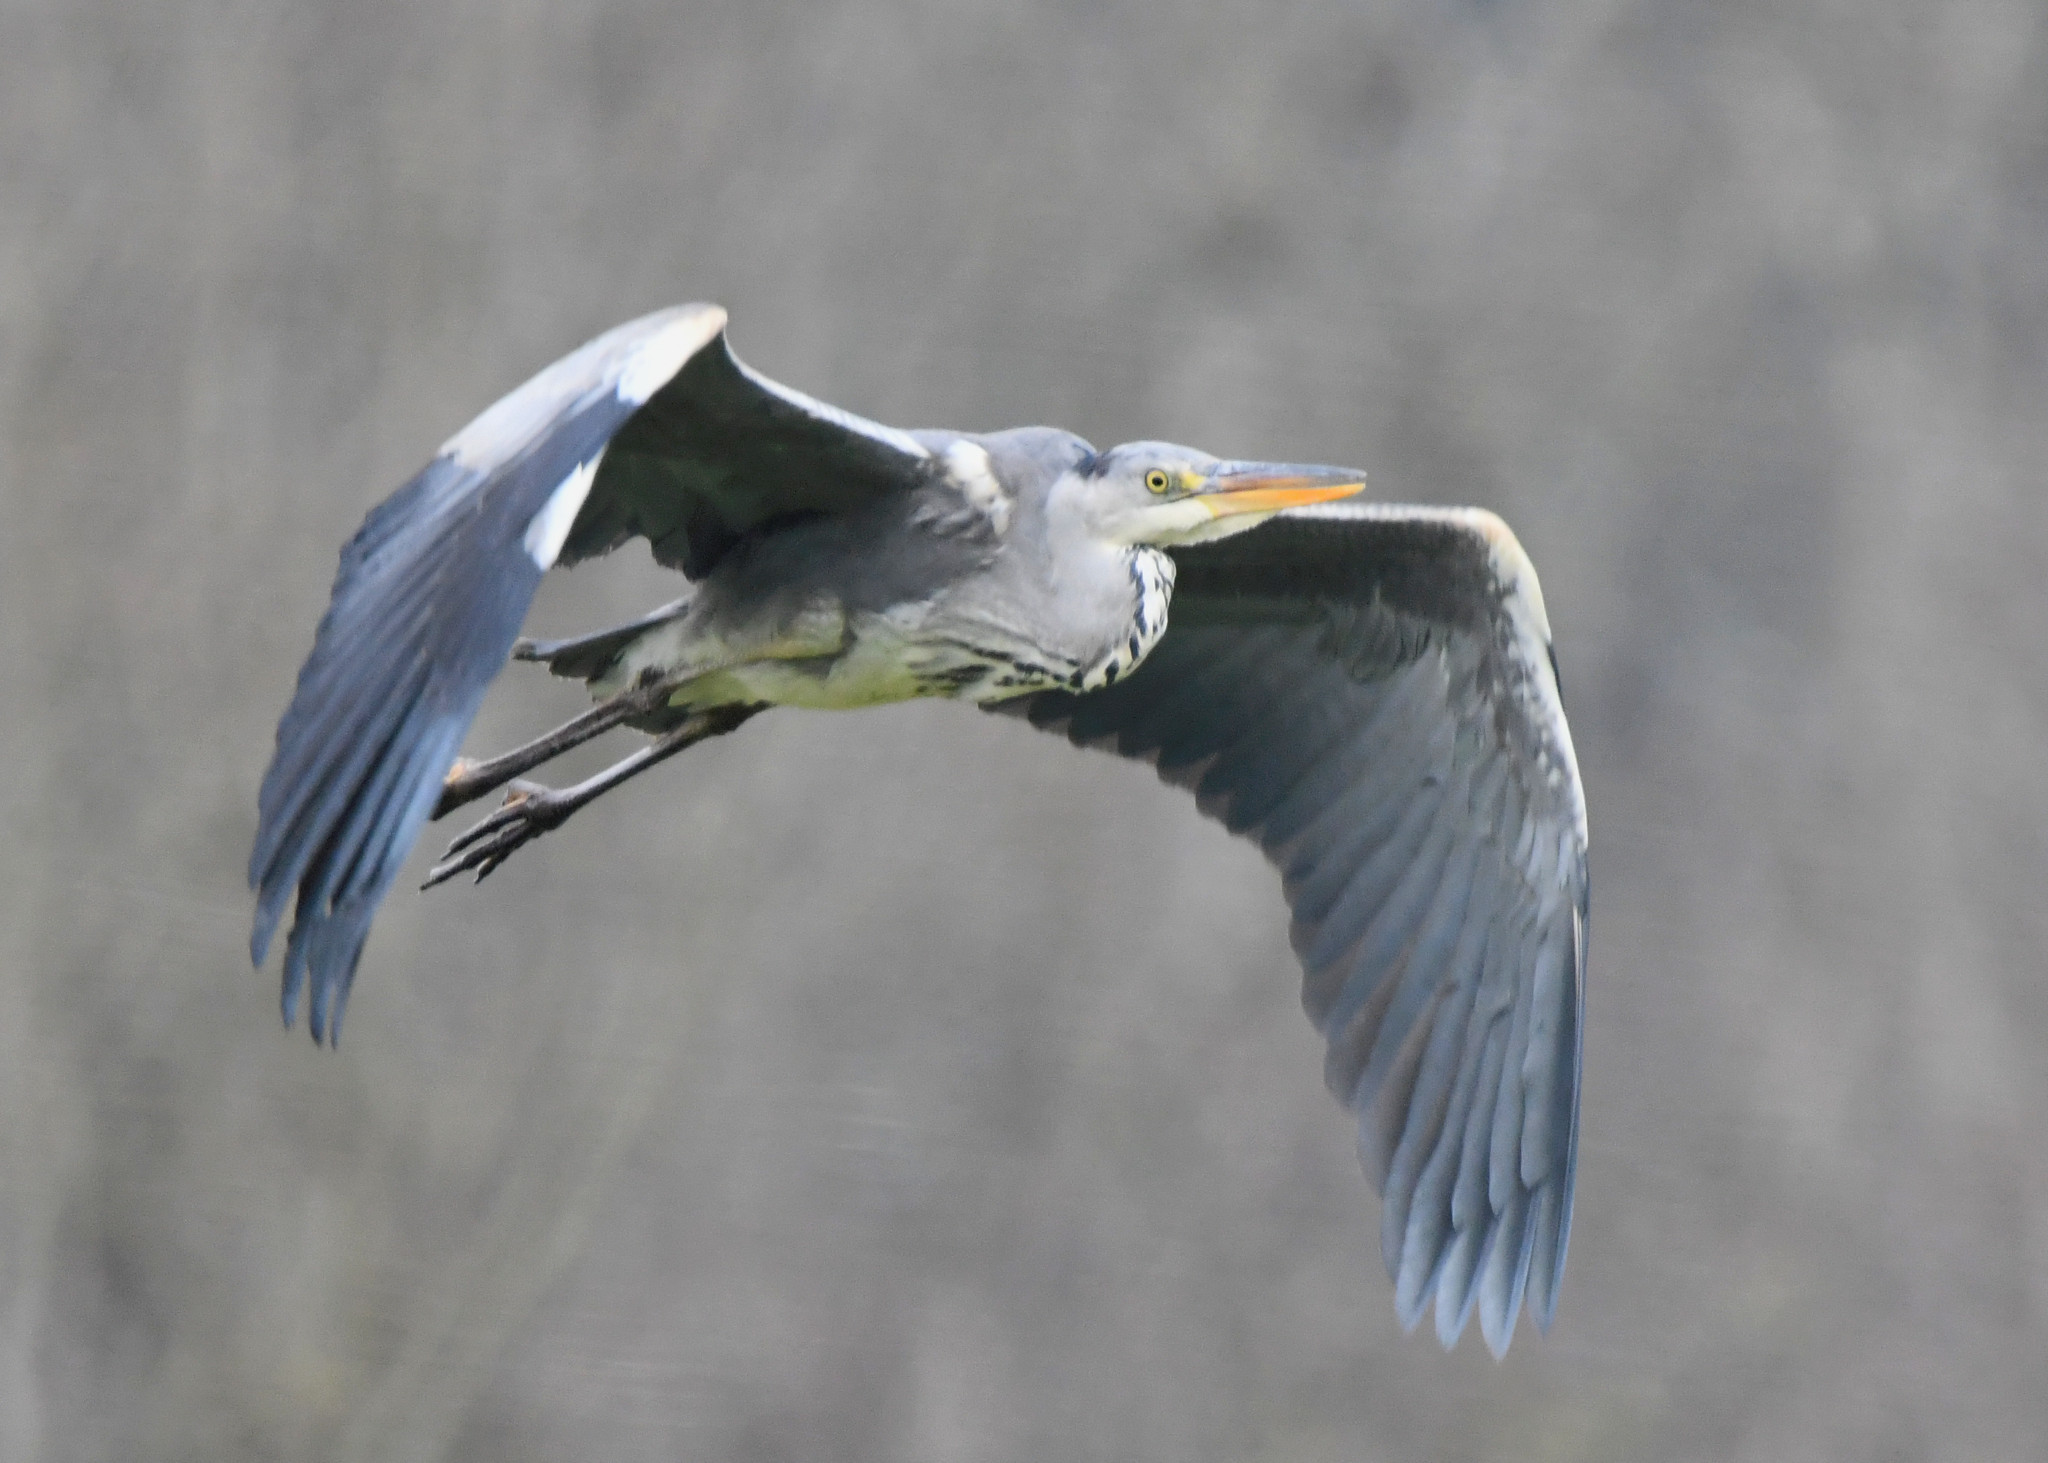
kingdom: Animalia
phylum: Chordata
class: Aves
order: Pelecaniformes
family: Ardeidae
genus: Ardea
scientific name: Ardea cinerea
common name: Grey heron
